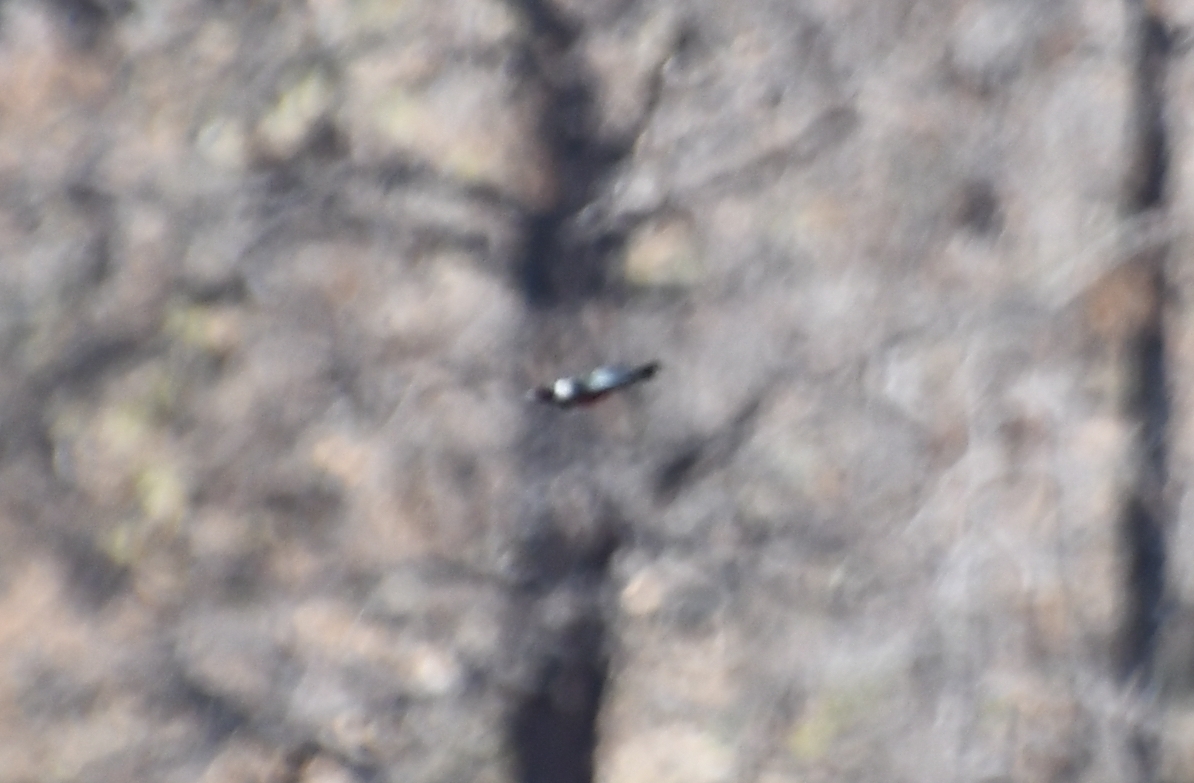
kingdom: Animalia
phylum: Chordata
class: Aves
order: Piciformes
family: Picidae
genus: Melanerpes
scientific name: Melanerpes lewis
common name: Lewis's woodpecker
